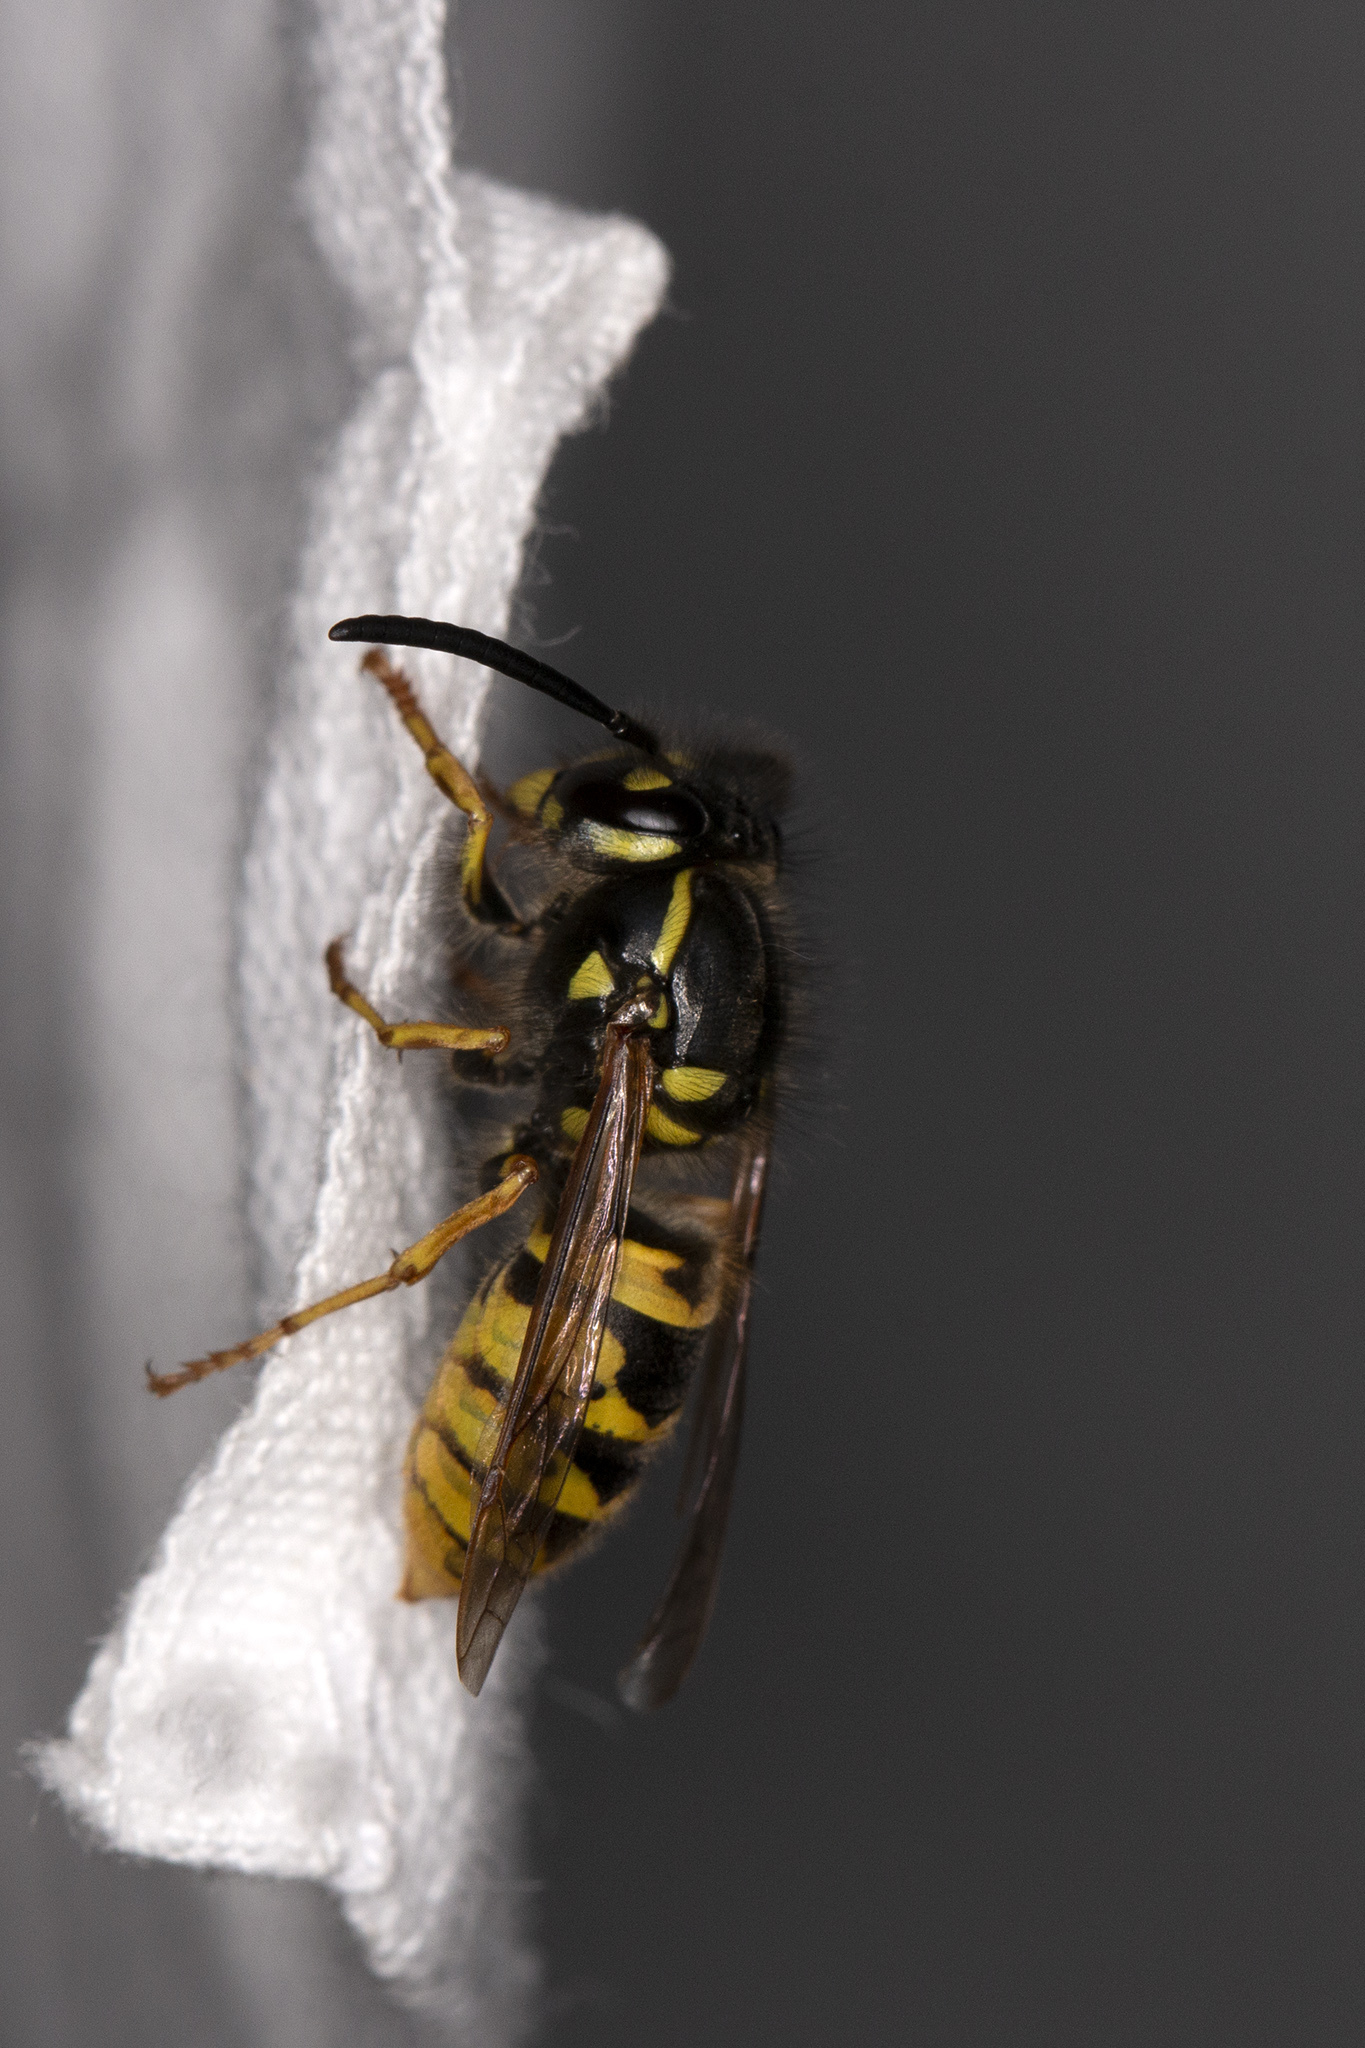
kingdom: Animalia
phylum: Arthropoda
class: Insecta
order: Hymenoptera
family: Vespidae
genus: Vespula
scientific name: Vespula vulgaris
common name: Common wasp
